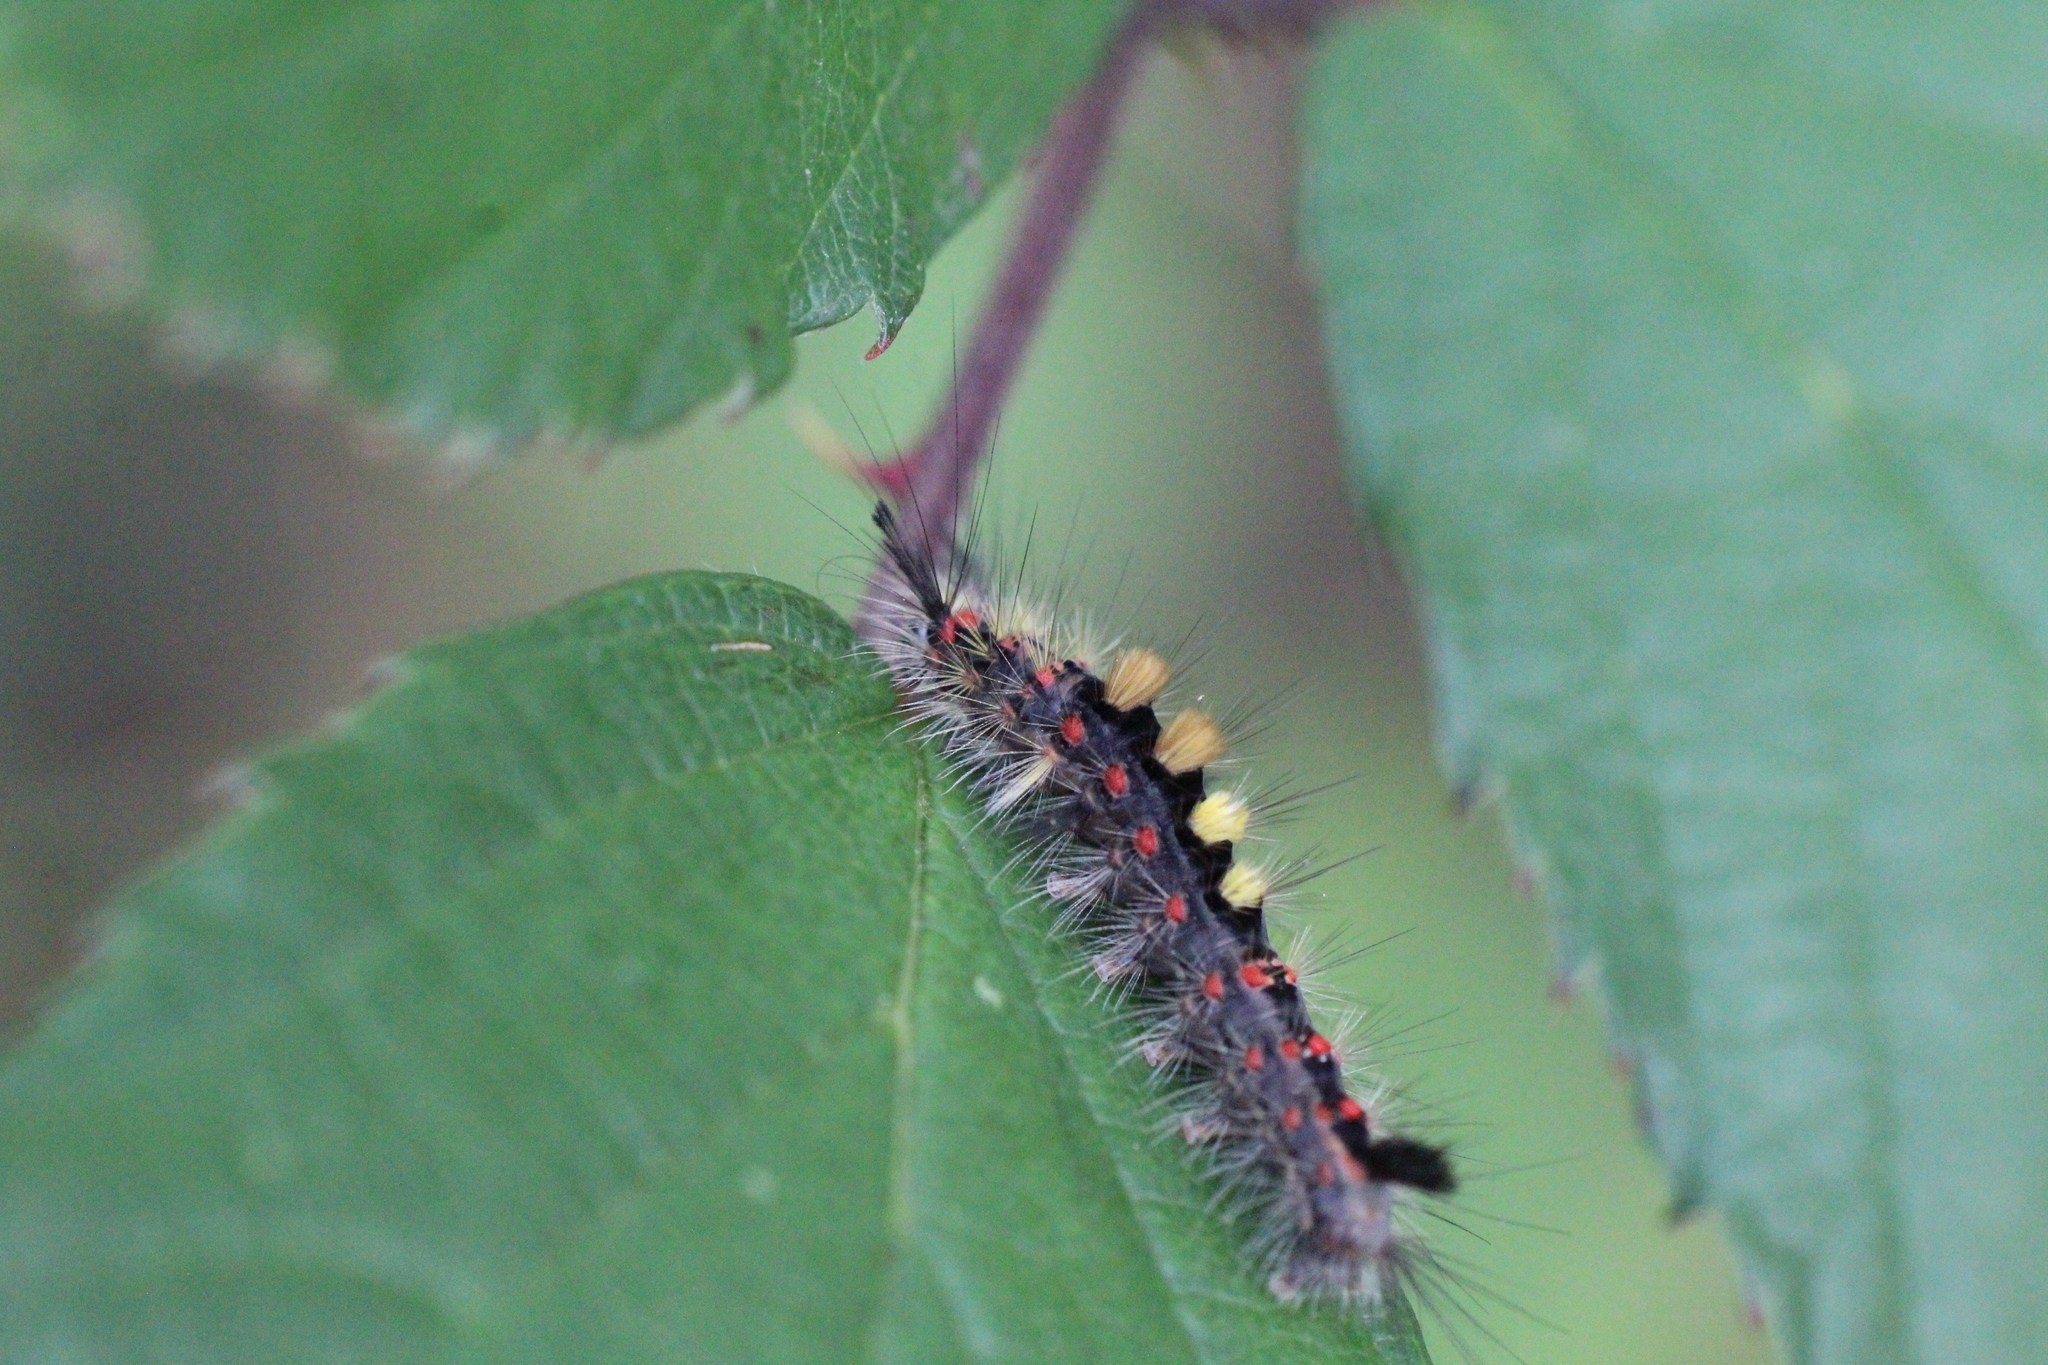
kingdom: Animalia
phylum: Arthropoda
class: Insecta
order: Lepidoptera
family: Erebidae
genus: Orgyia
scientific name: Orgyia antiqua
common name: Vapourer
